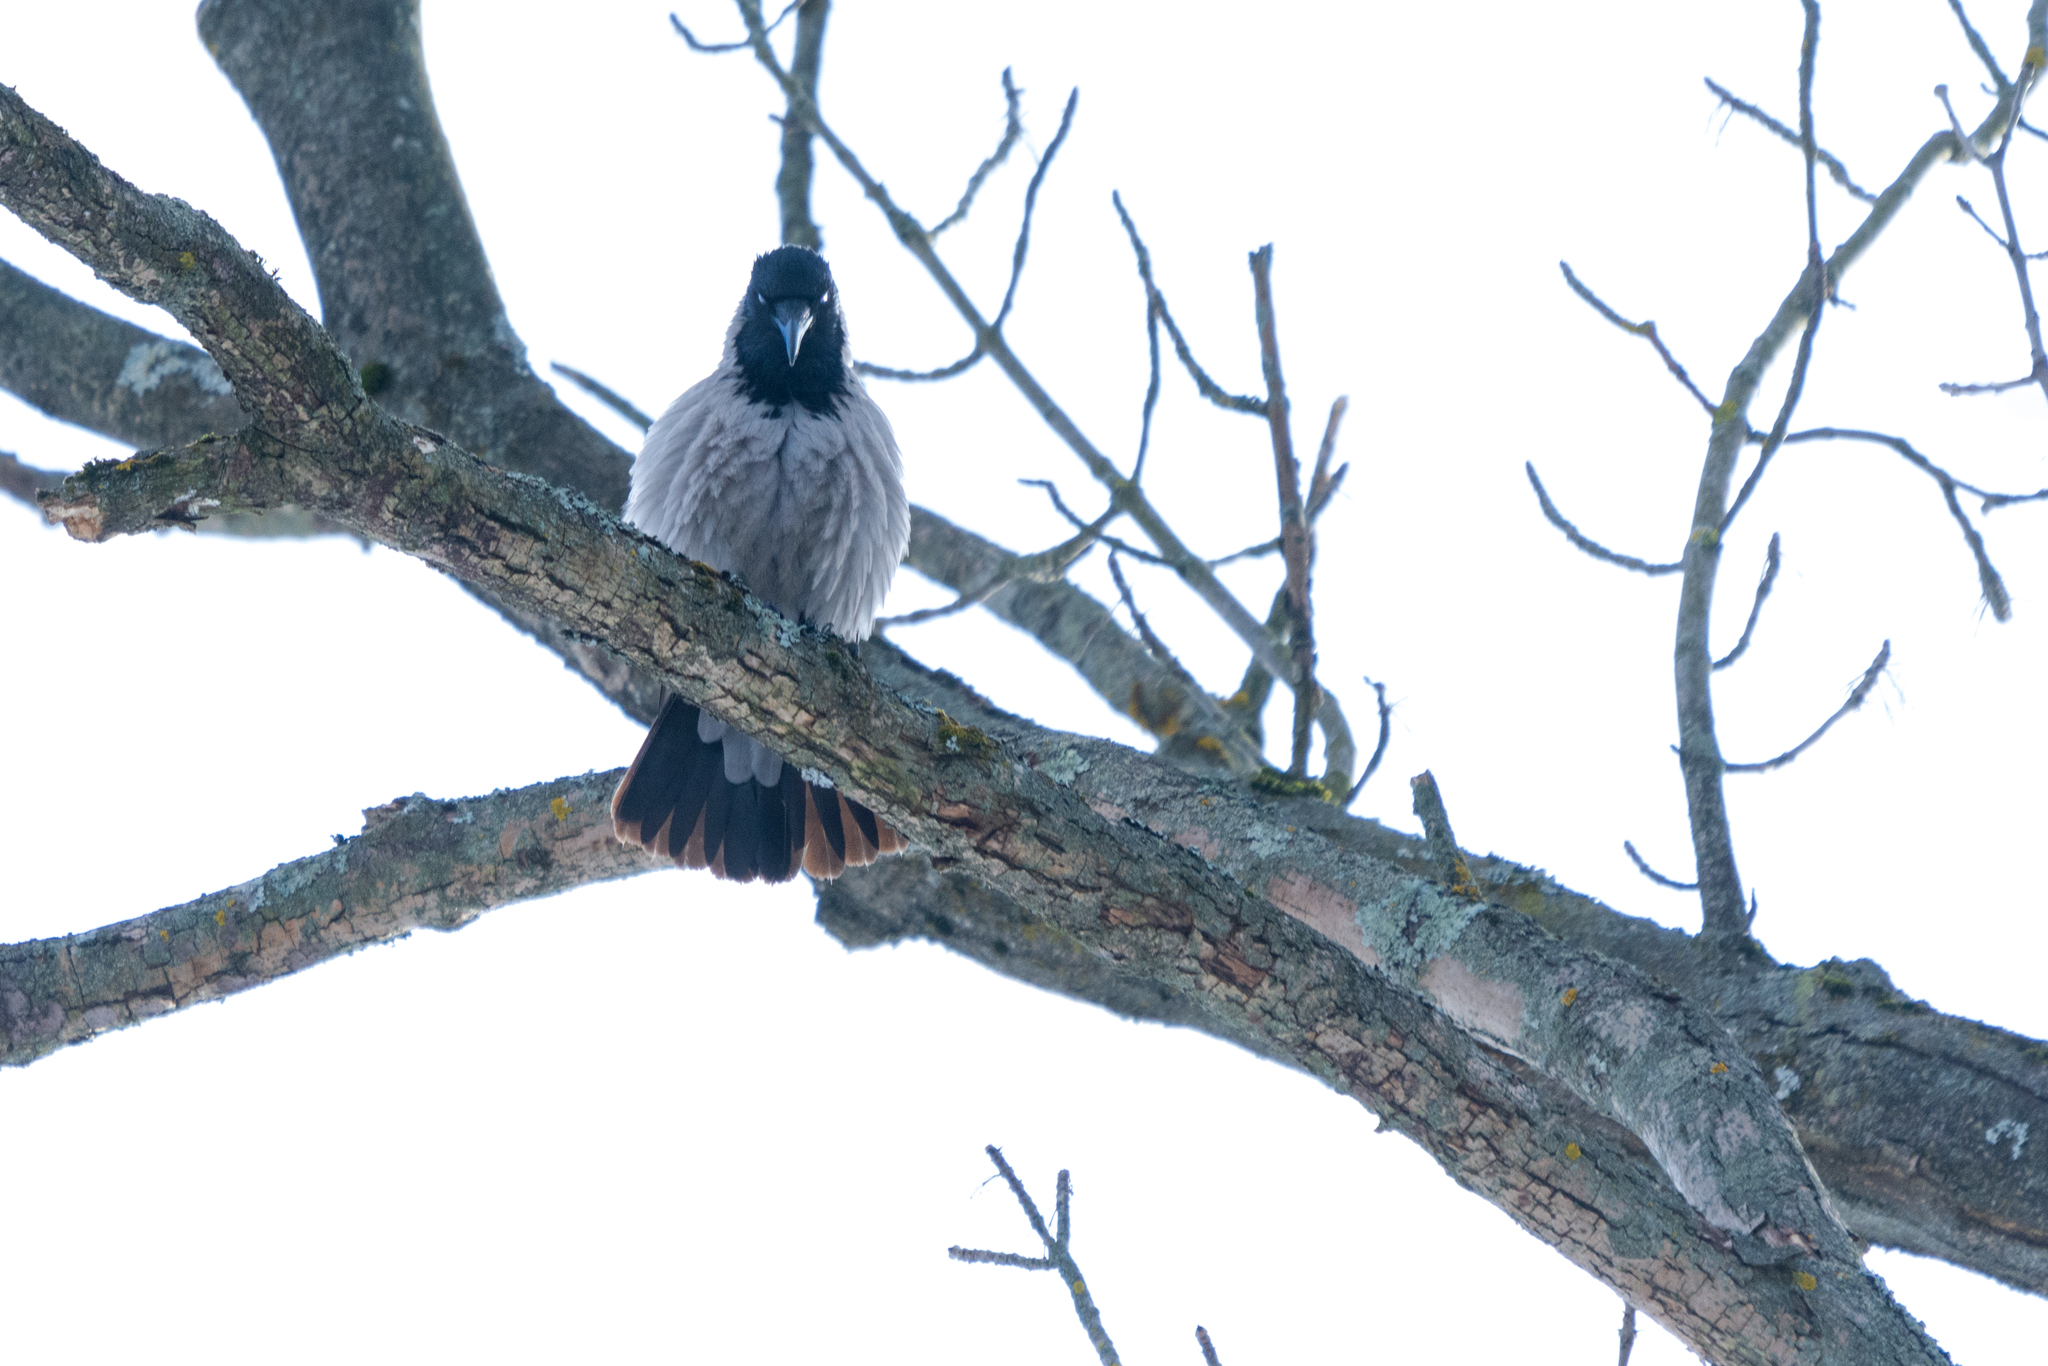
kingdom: Animalia
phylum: Chordata
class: Aves
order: Passeriformes
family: Corvidae
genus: Corvus
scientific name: Corvus cornix
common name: Hooded crow
